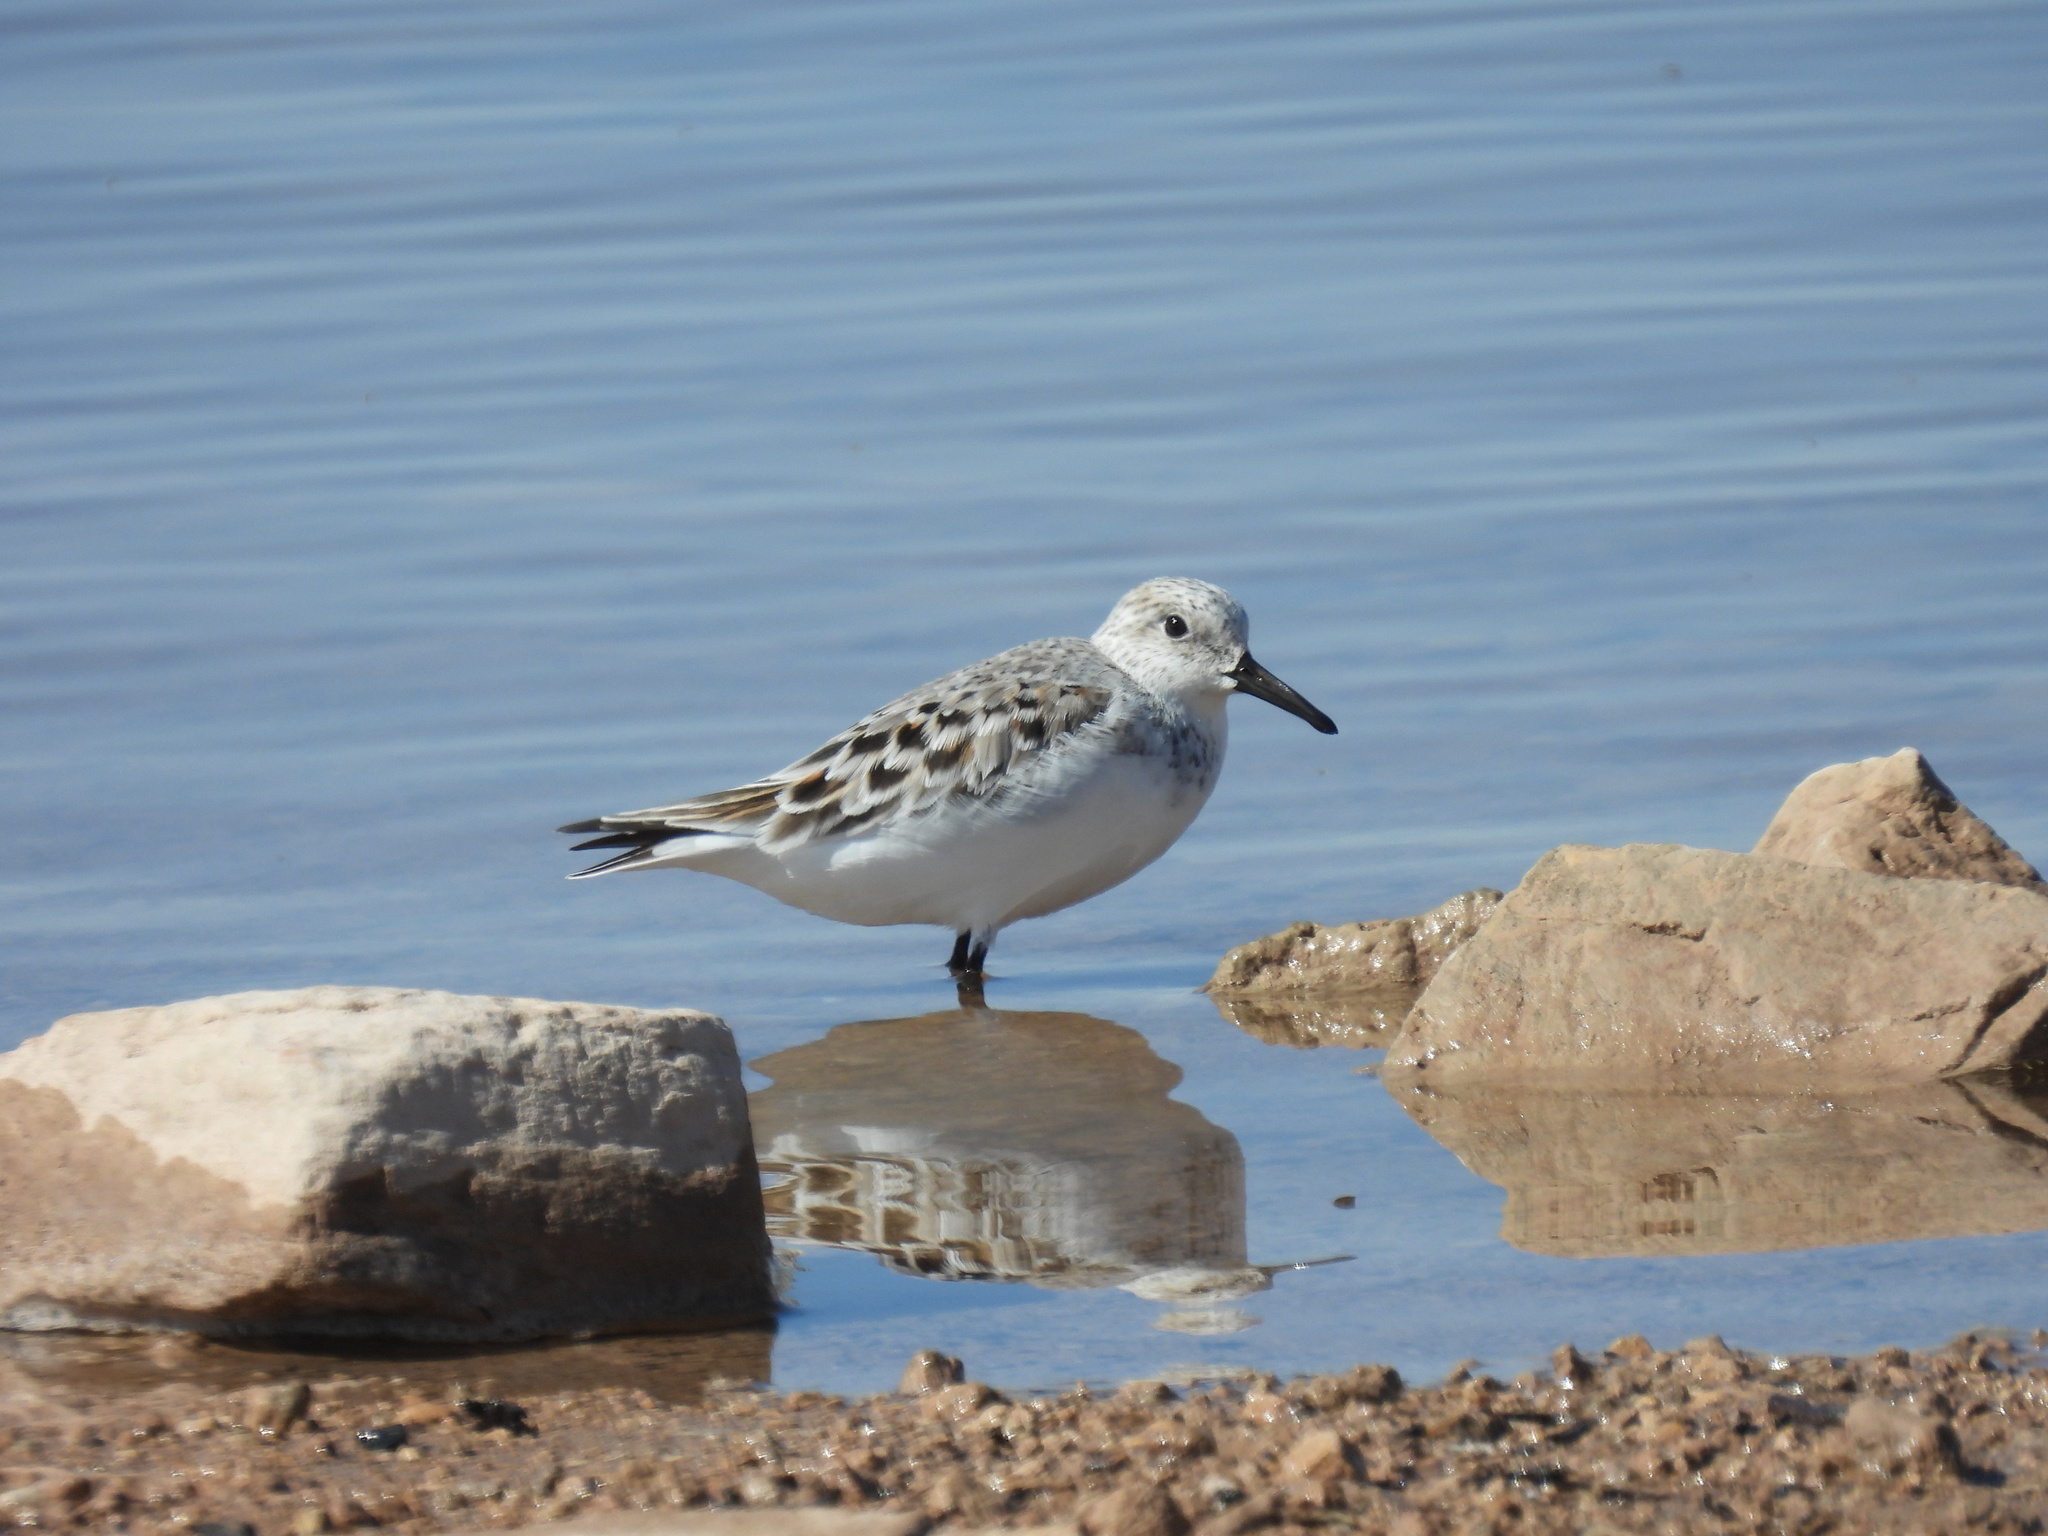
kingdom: Animalia
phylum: Chordata
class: Aves
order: Charadriiformes
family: Scolopacidae
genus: Calidris
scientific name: Calidris alba
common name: Sanderling
